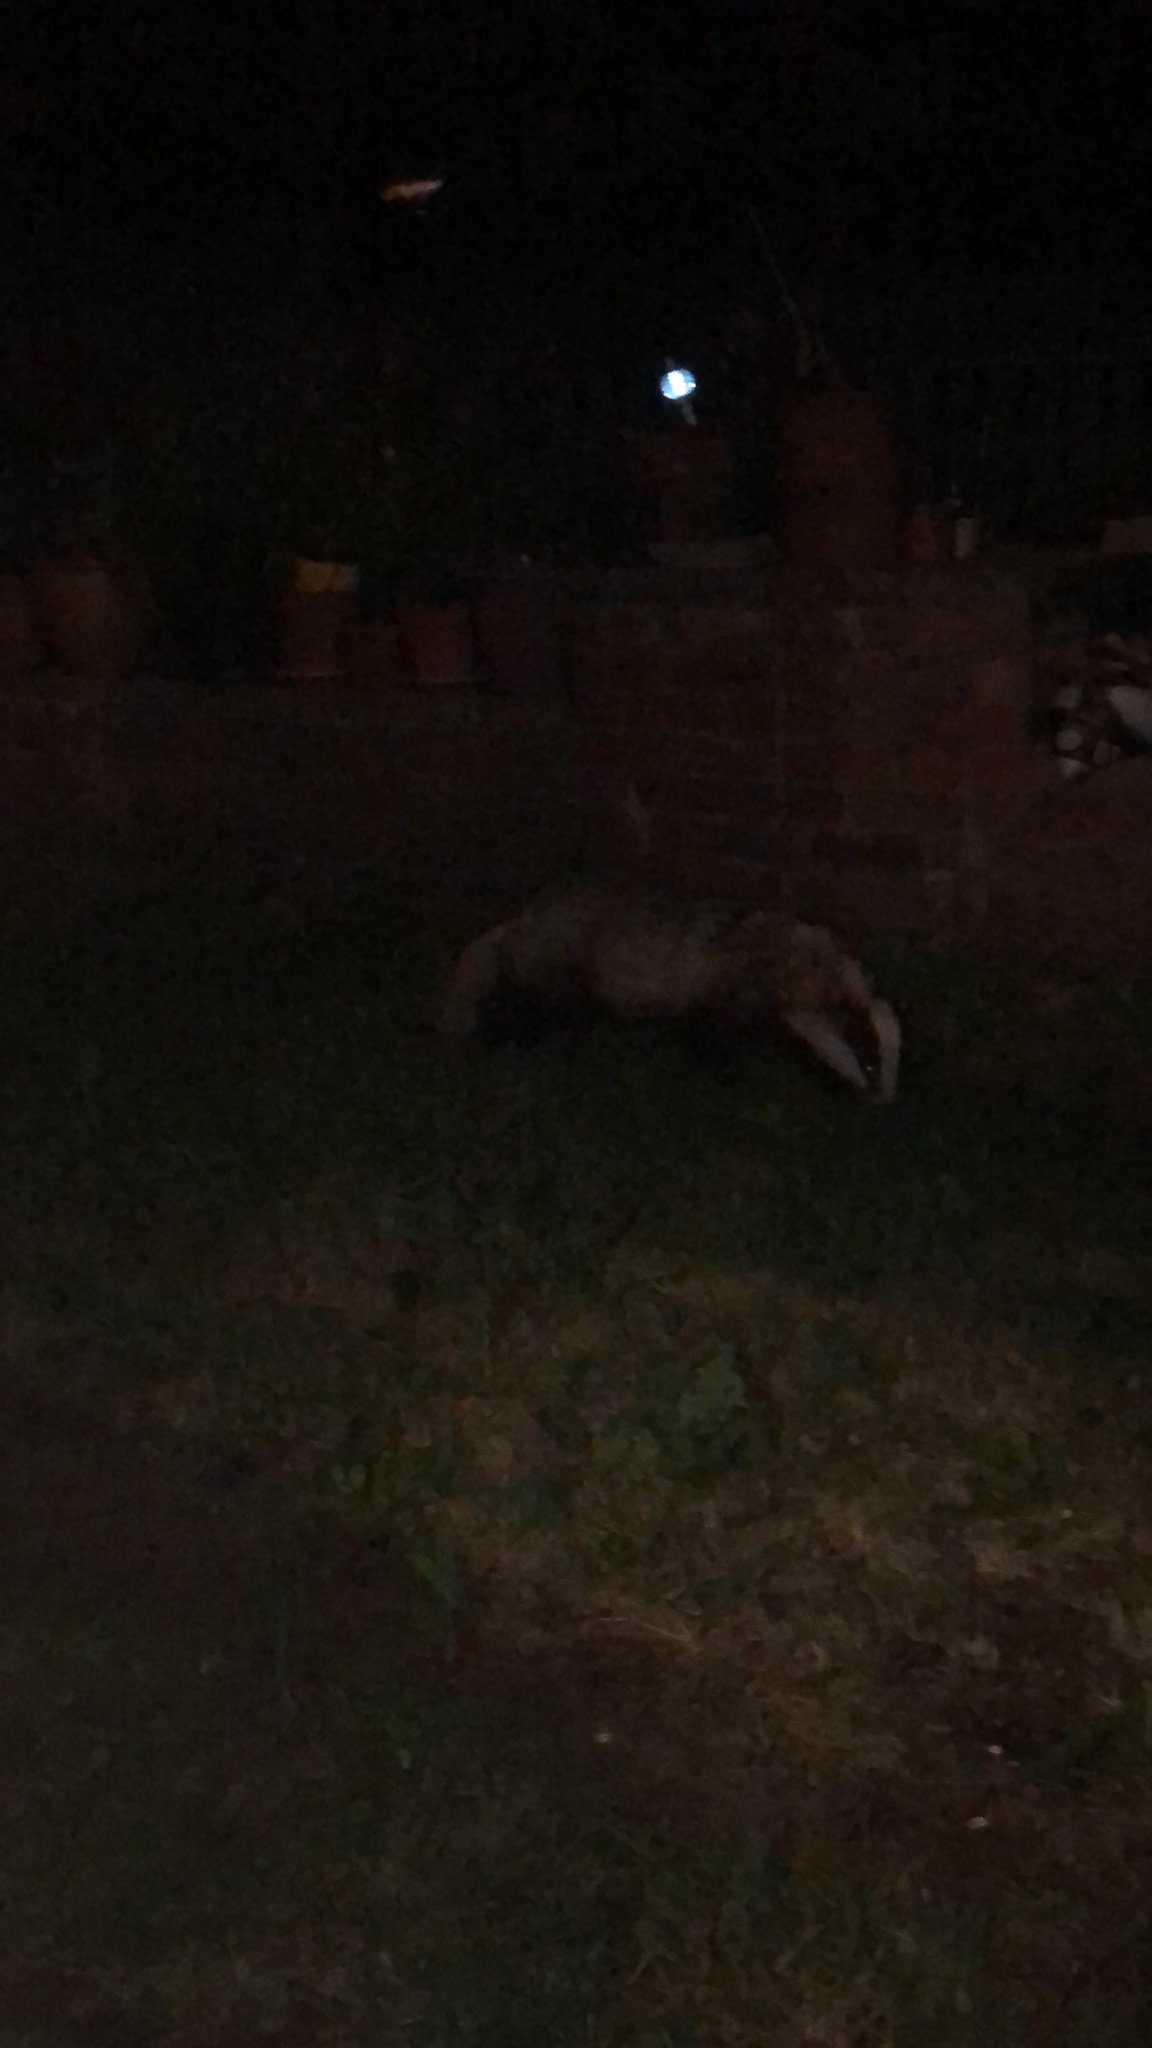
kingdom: Animalia
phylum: Chordata
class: Mammalia
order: Carnivora
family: Mustelidae
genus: Meles
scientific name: Meles meles
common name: Eurasian badger
